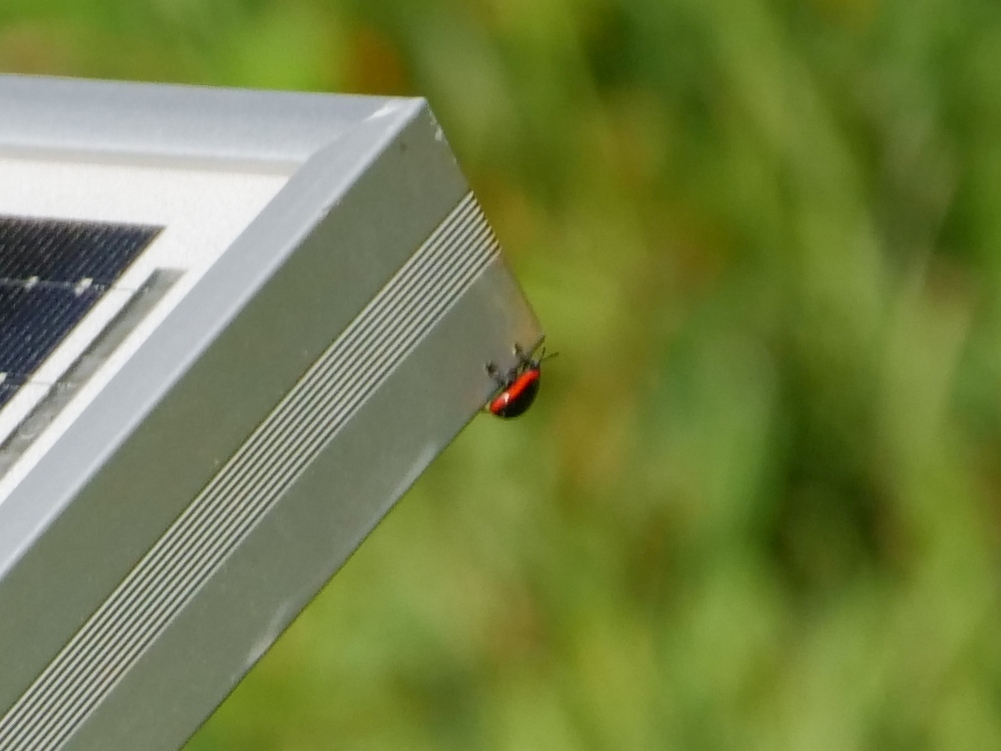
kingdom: Animalia
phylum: Arthropoda
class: Insecta
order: Coleoptera
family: Chrysomelidae
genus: Chrysolina
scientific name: Chrysolina rossia
